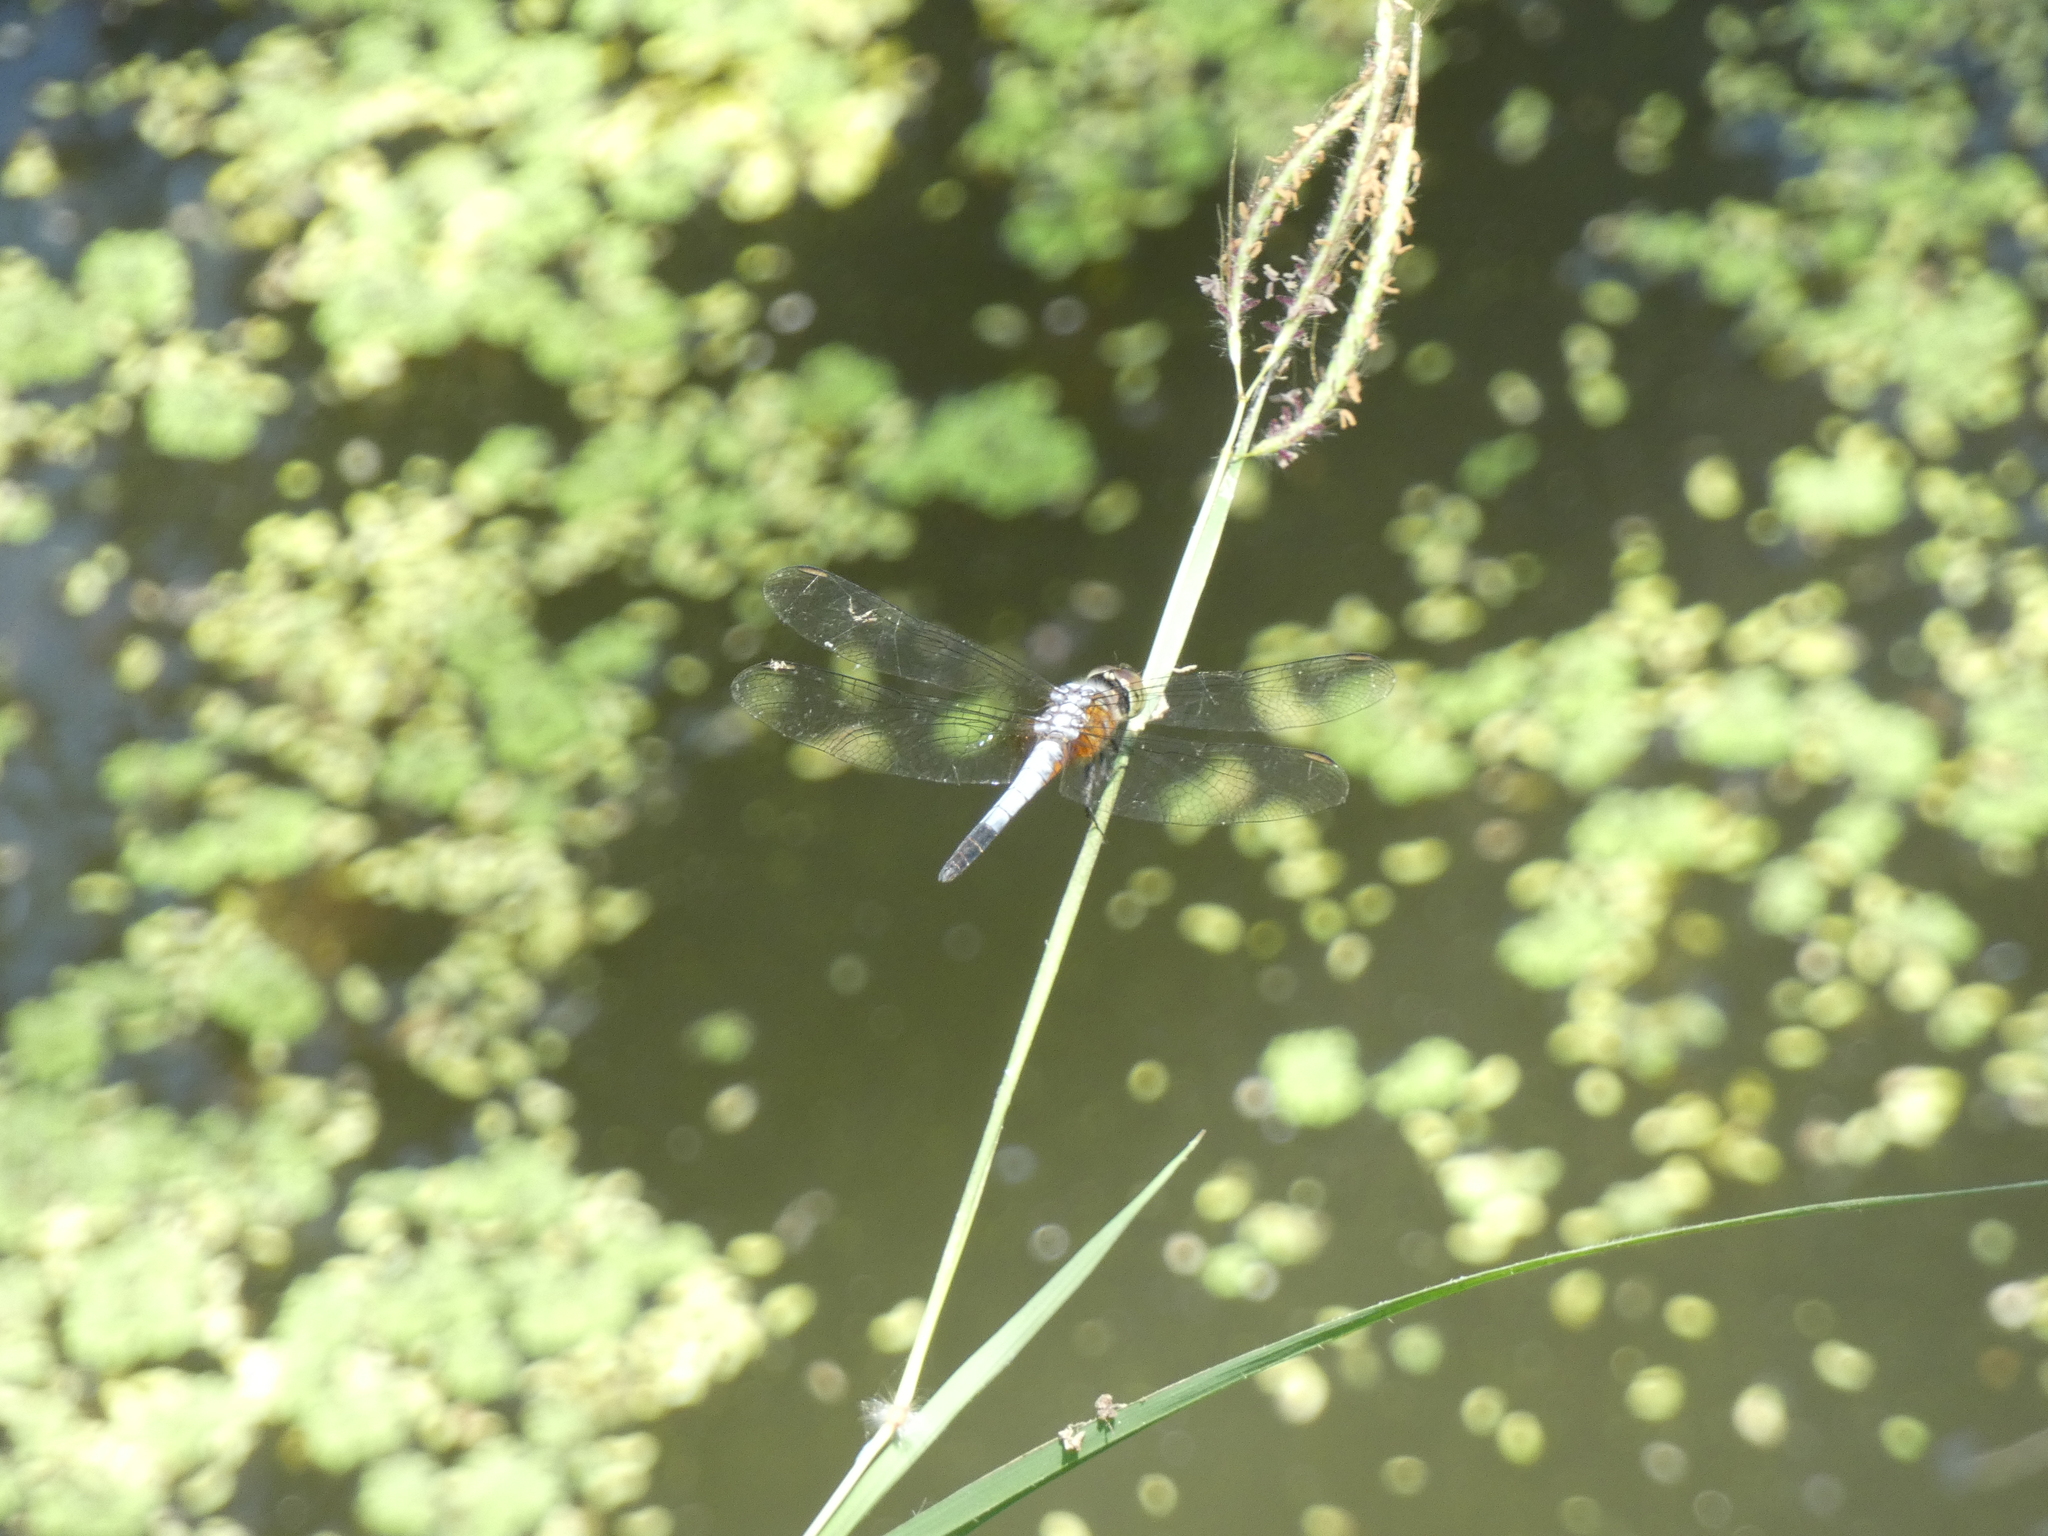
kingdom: Animalia
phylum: Arthropoda
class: Insecta
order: Odonata
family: Libellulidae
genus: Brachydiplax
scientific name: Brachydiplax chalybea
